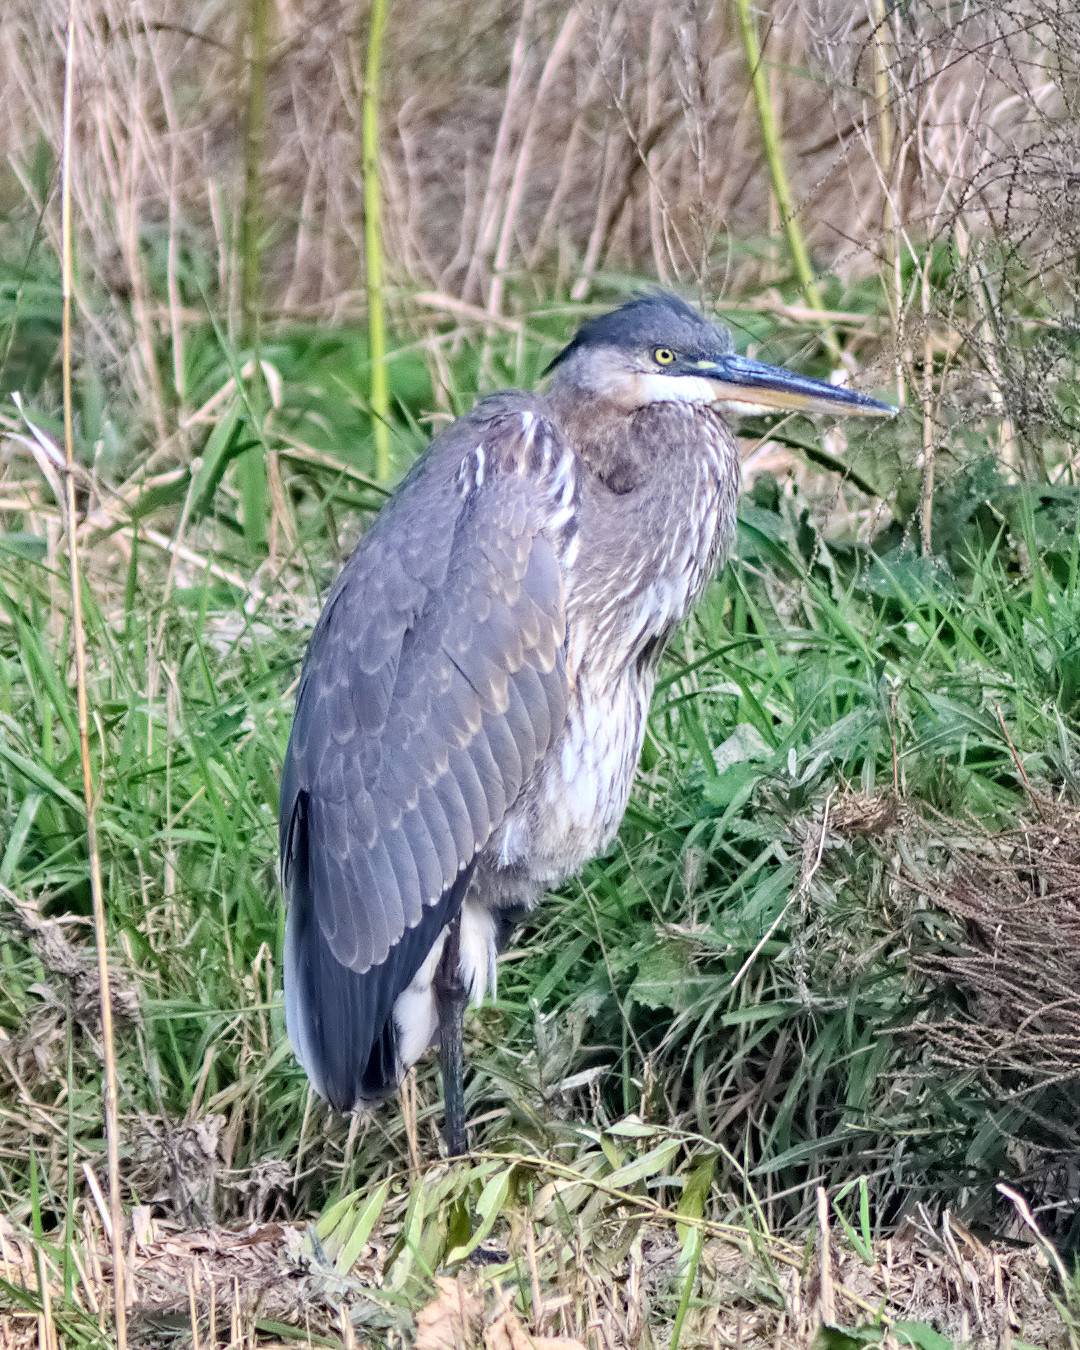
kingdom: Animalia
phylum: Chordata
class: Aves
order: Pelecaniformes
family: Ardeidae
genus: Ardea
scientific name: Ardea herodias
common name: Great blue heron
